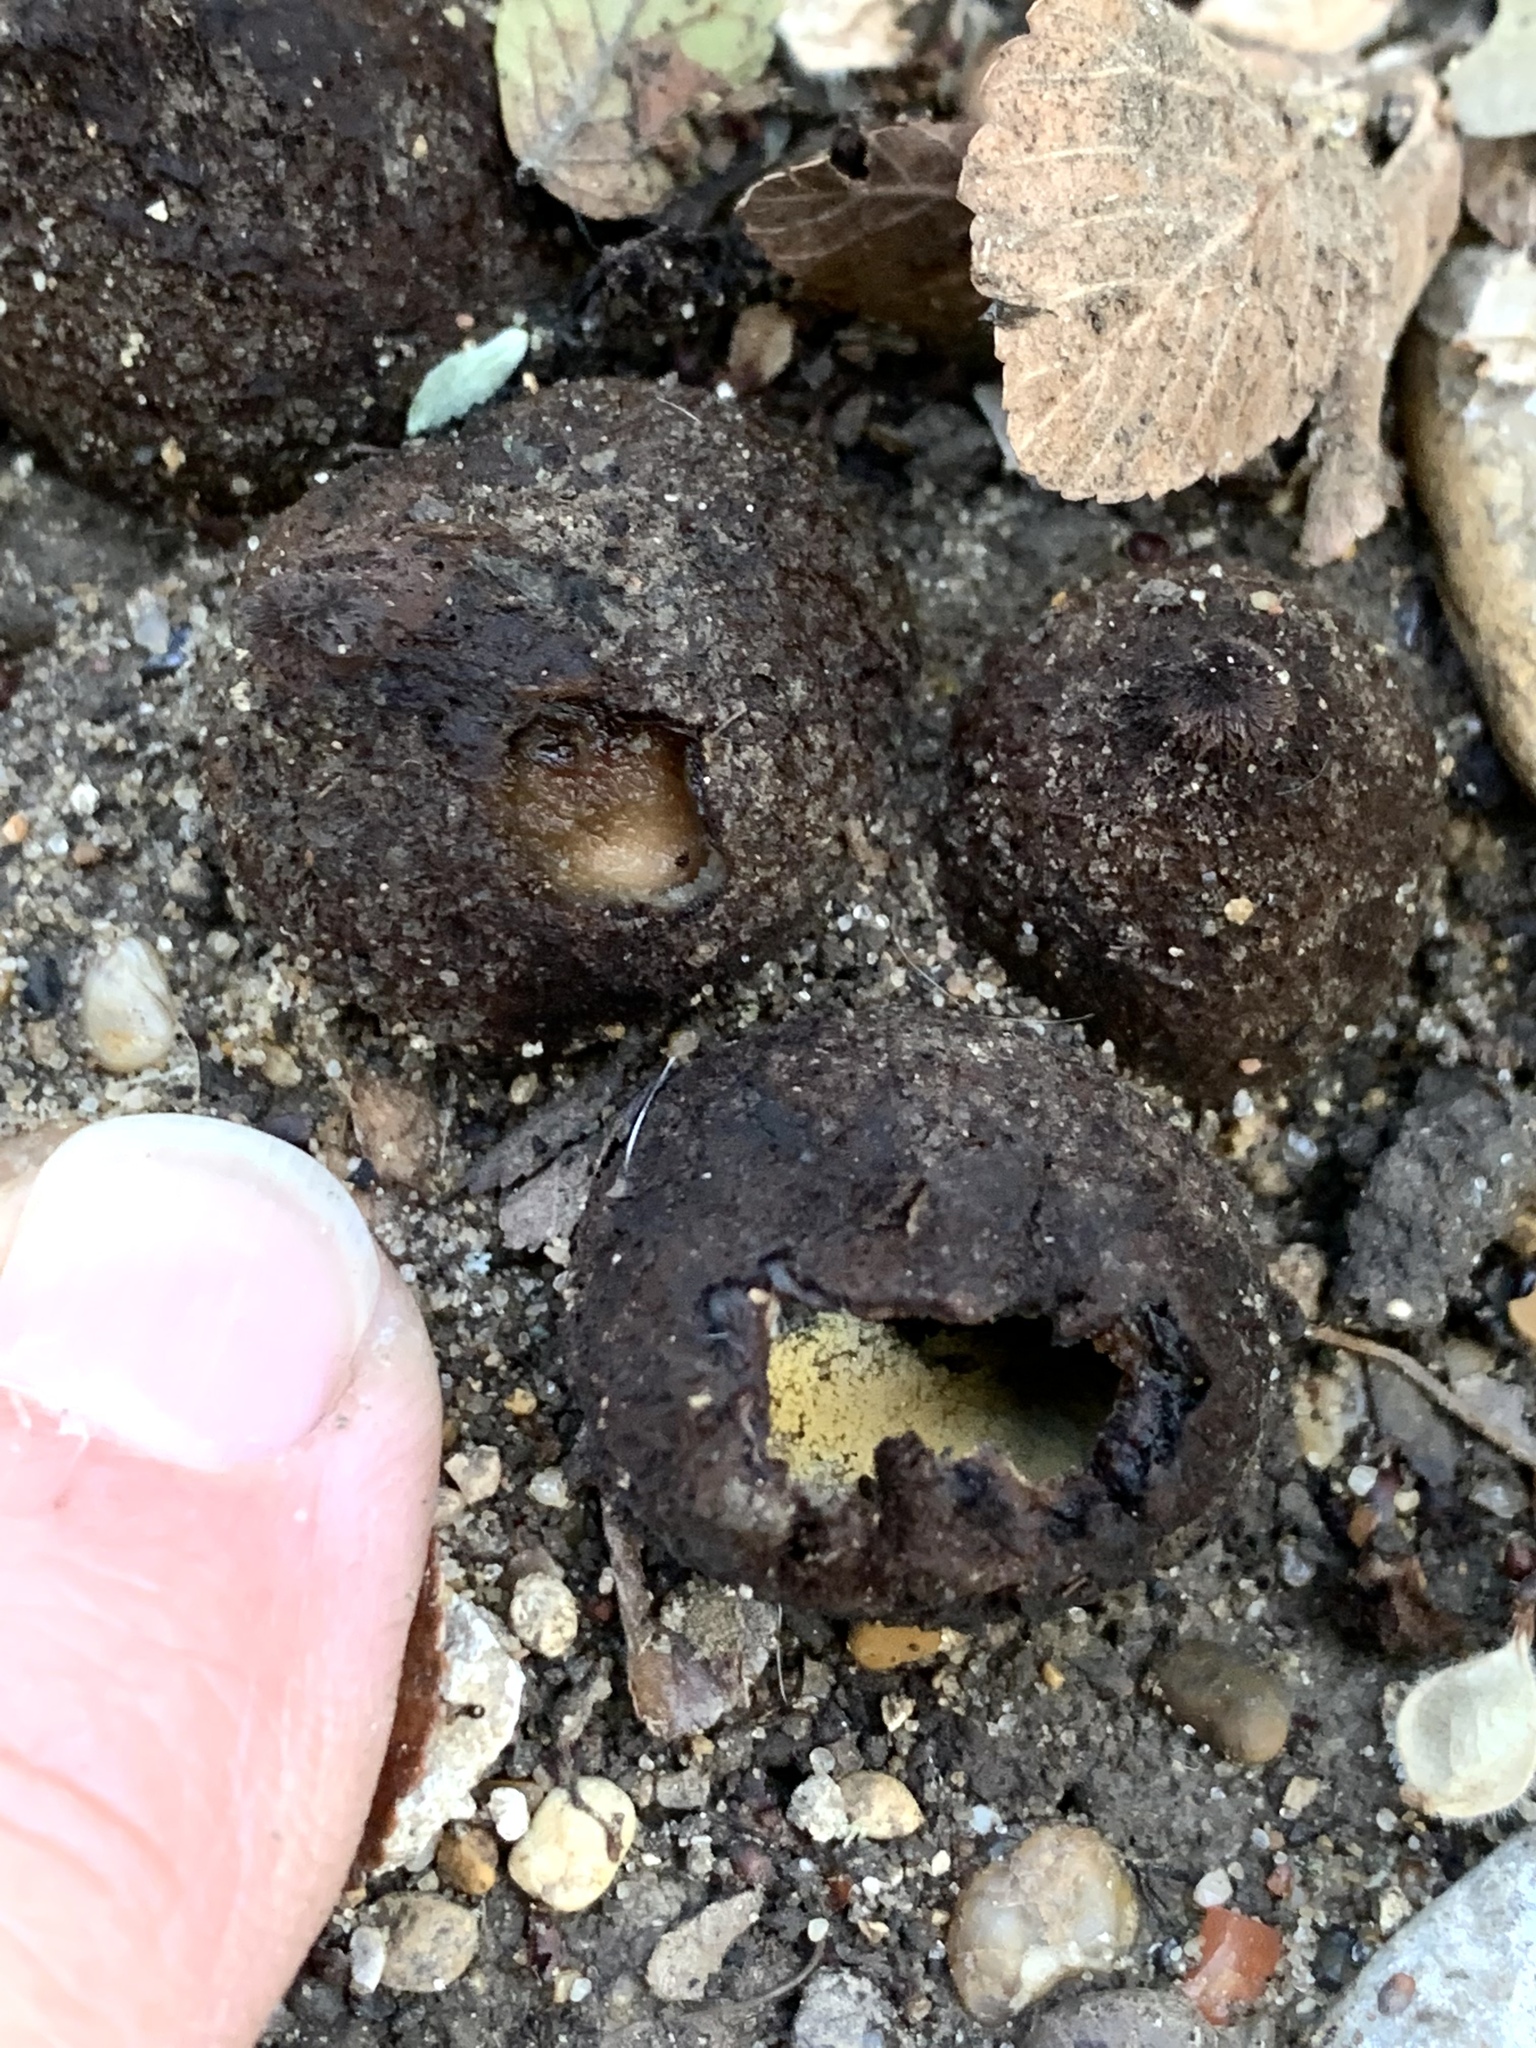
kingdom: Fungi
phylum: Ascomycota
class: Pezizomycetes
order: Pezizales
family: Chorioactidaceae
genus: Chorioactis
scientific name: Chorioactis geaster
